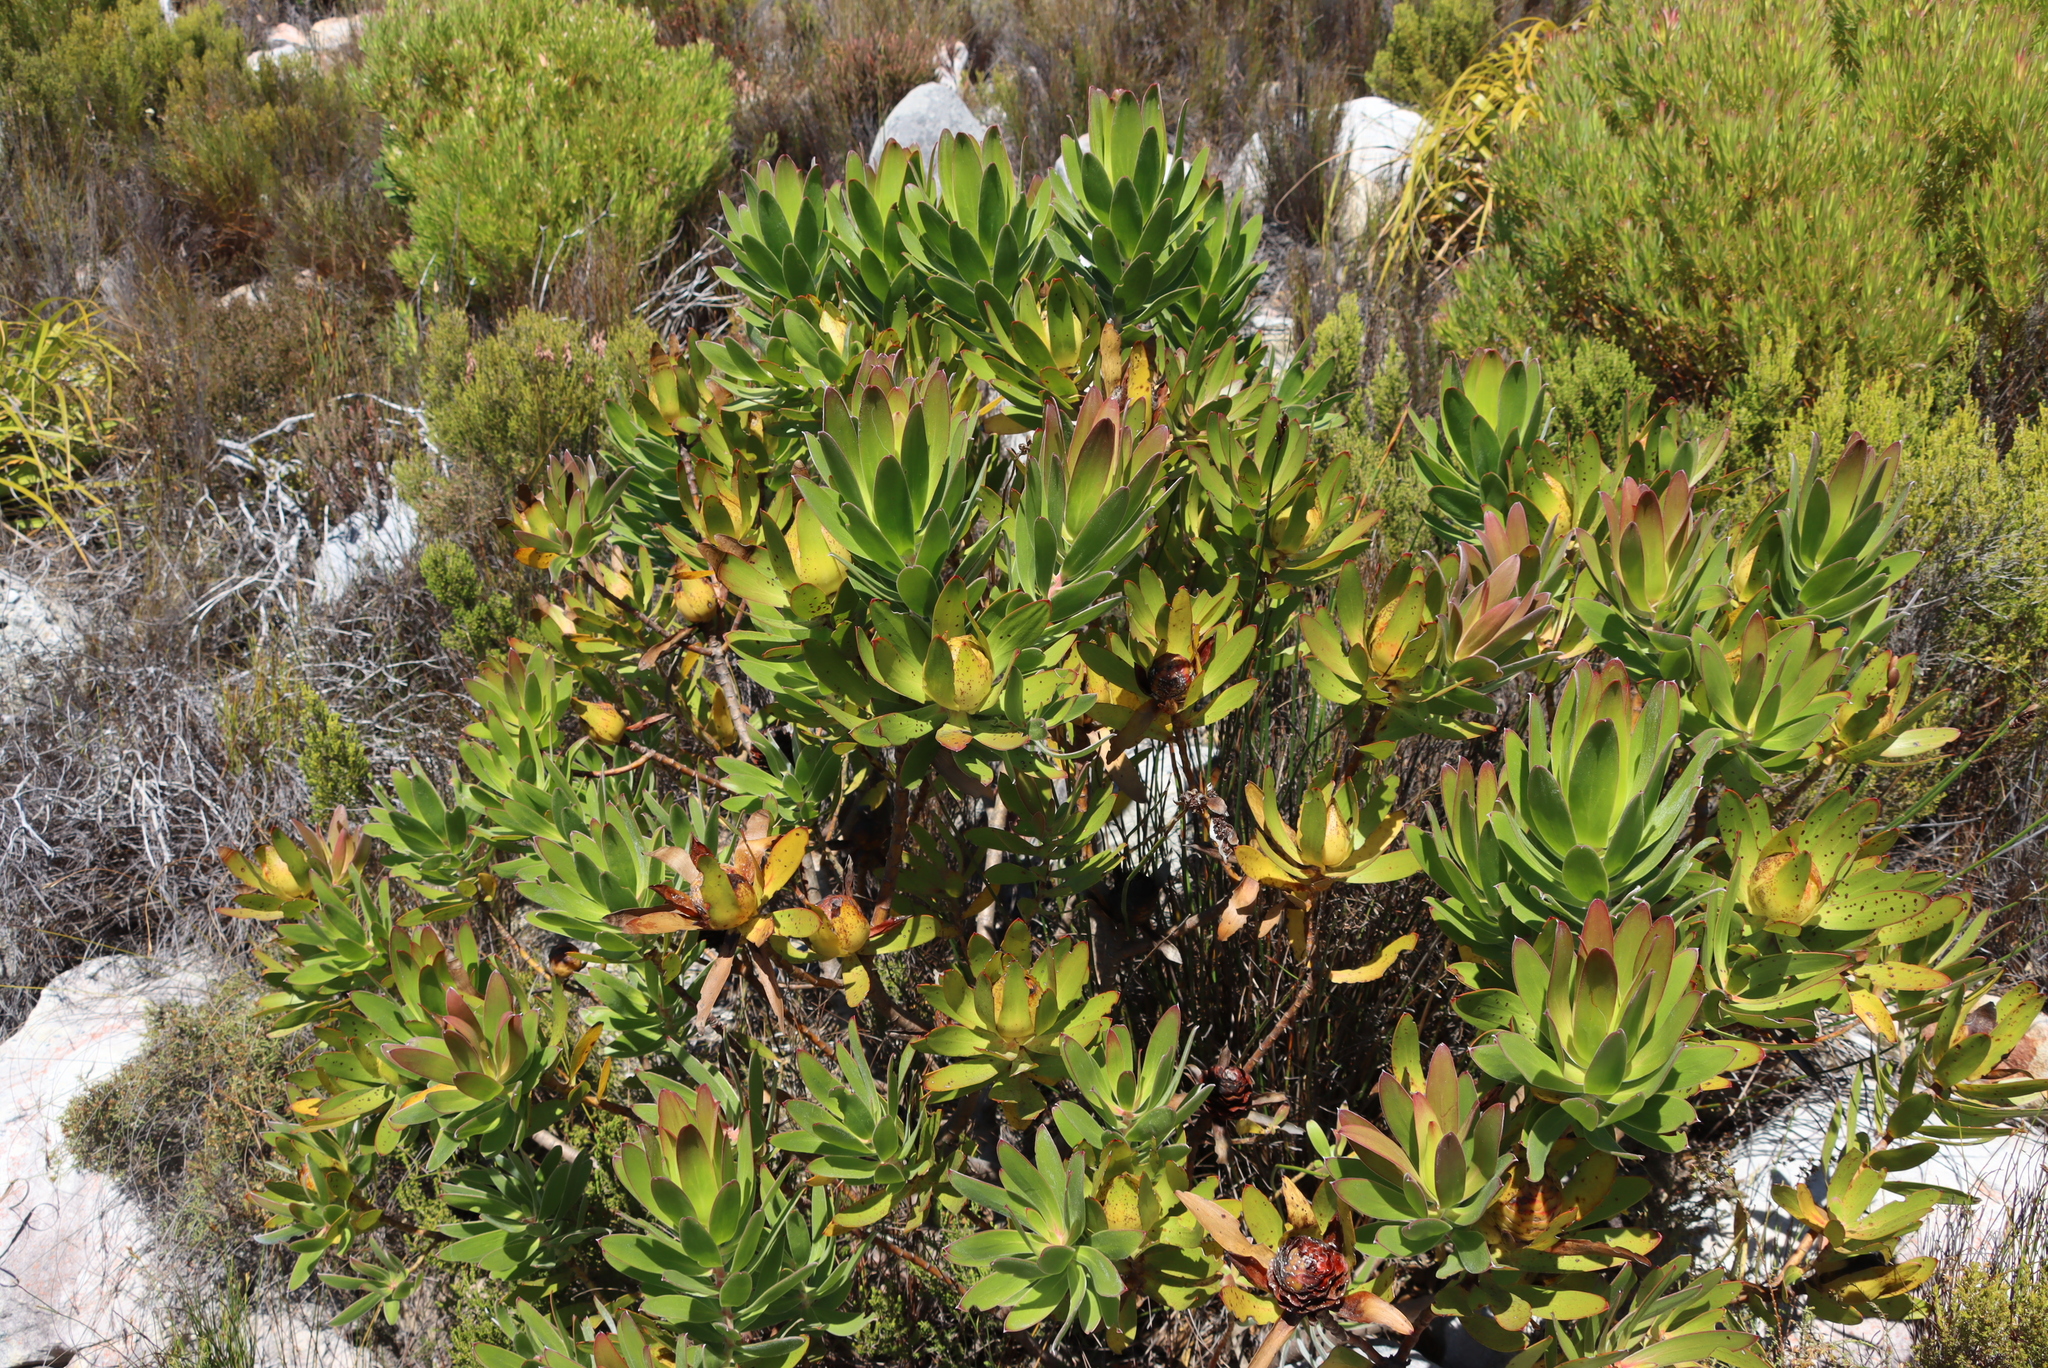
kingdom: Plantae
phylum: Tracheophyta
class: Magnoliopsida
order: Proteales
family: Proteaceae
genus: Leucadendron
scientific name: Leucadendron laureolum
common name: Golden sunshinebush
